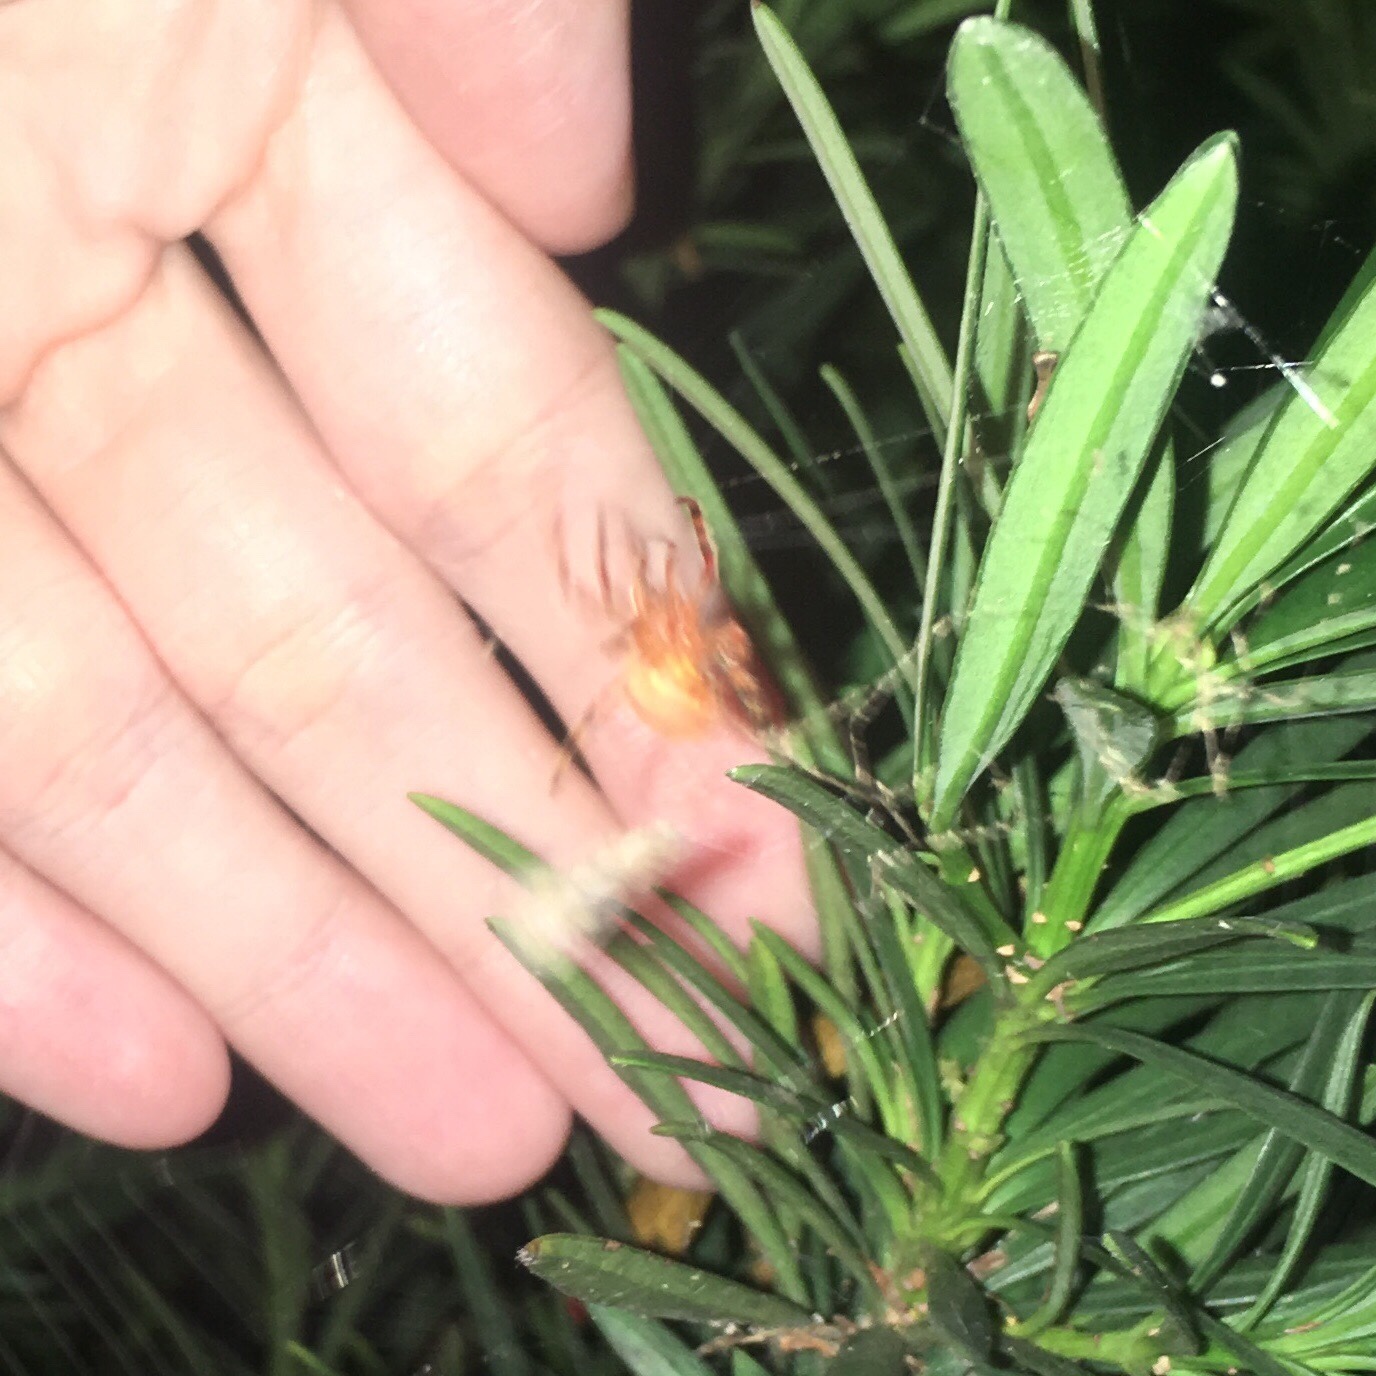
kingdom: Animalia
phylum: Arthropoda
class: Arachnida
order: Araneae
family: Araneidae
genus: Eriophora
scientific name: Eriophora ravilla
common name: Orb weavers
